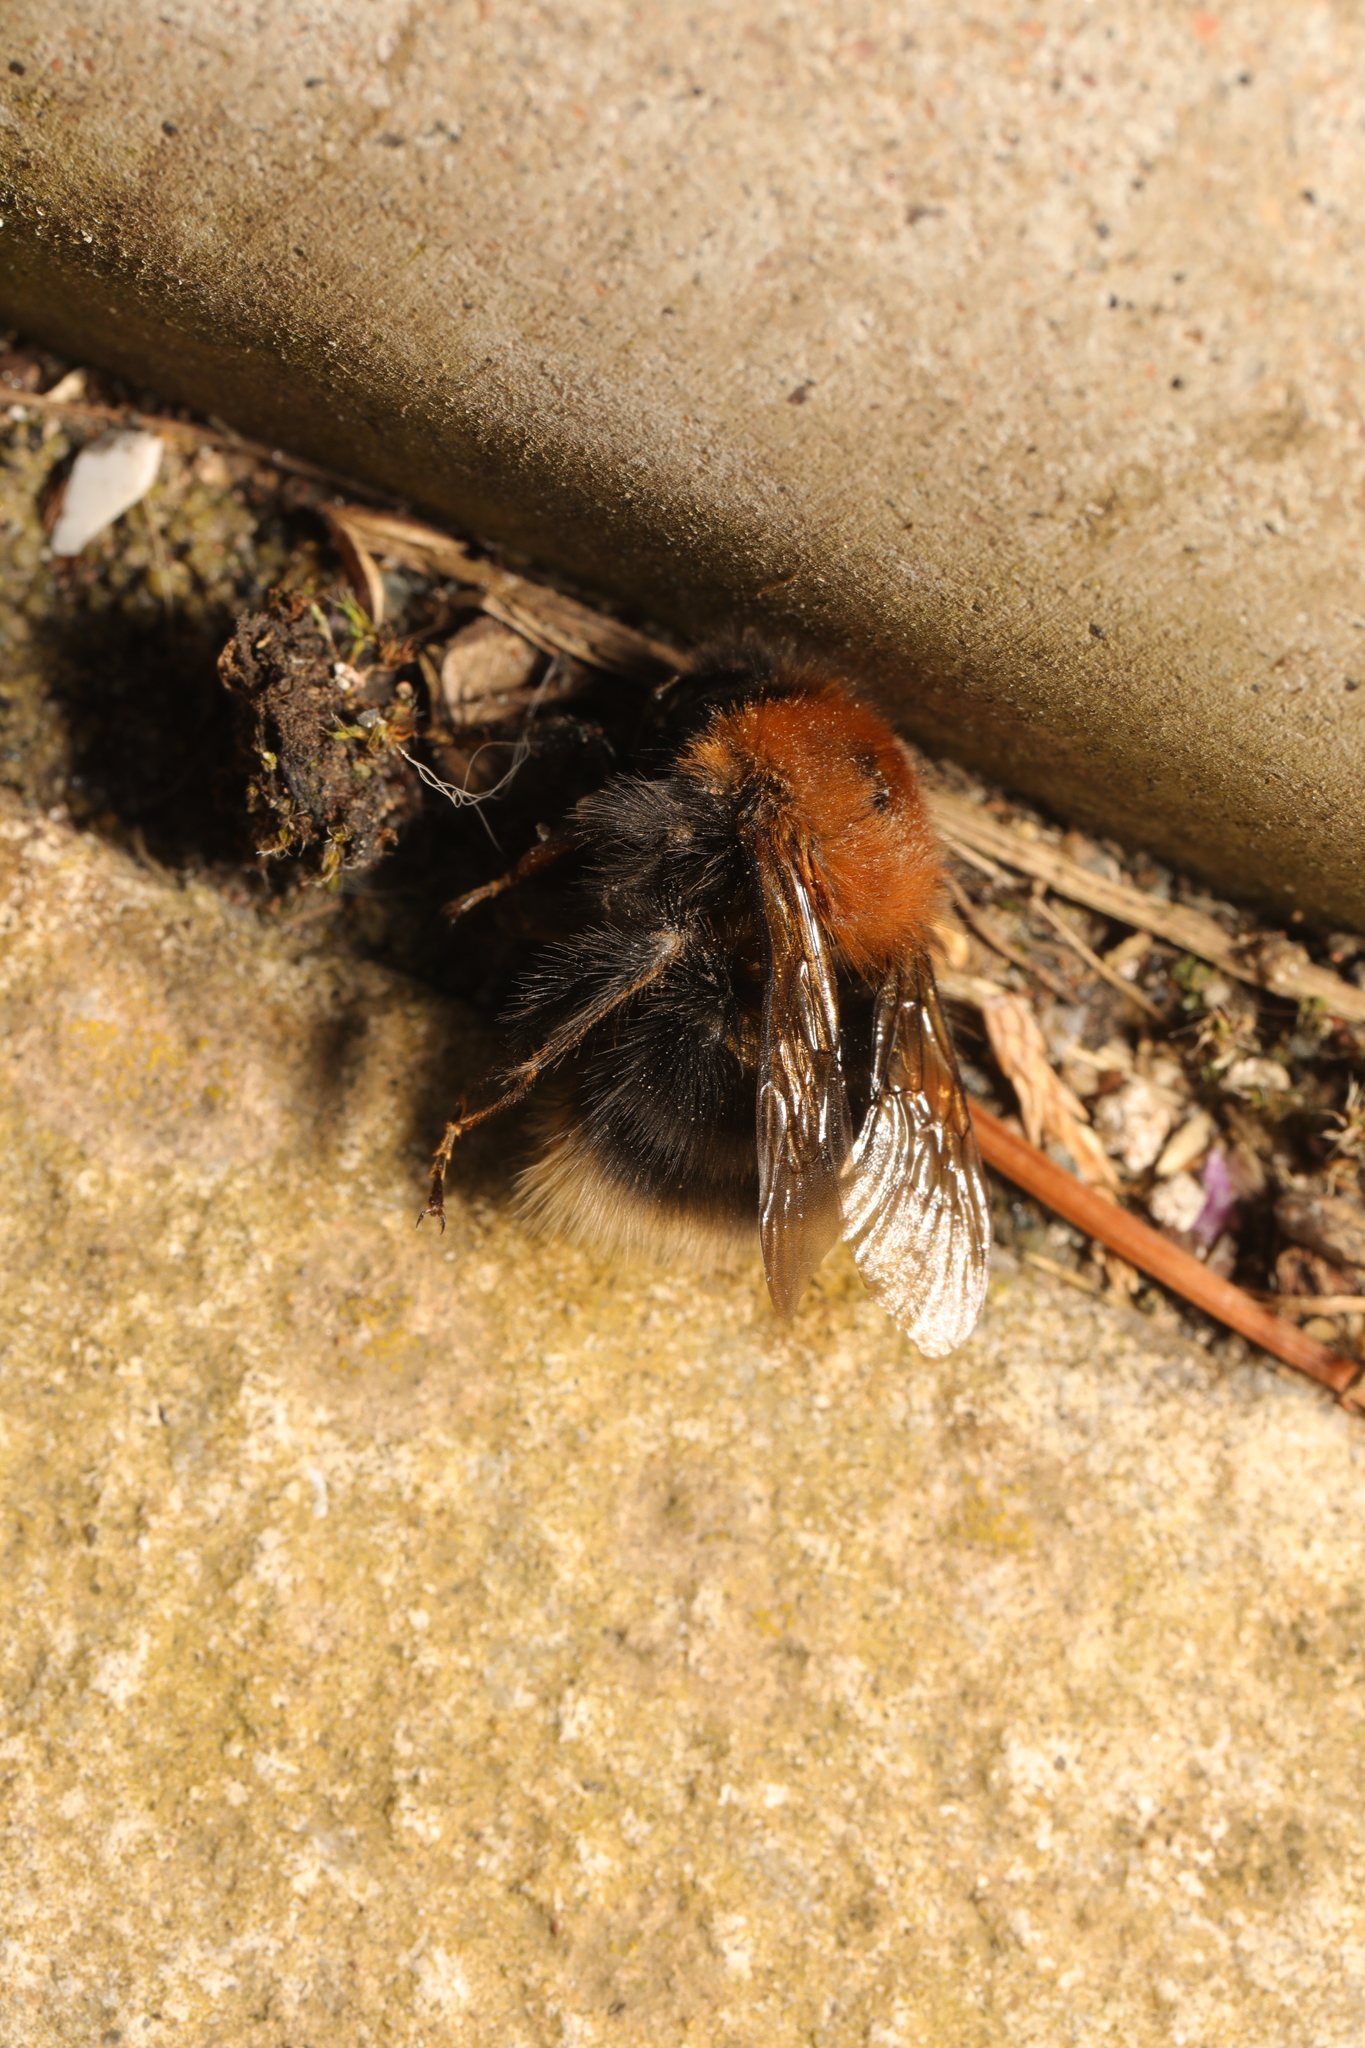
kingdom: Animalia
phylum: Arthropoda
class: Insecta
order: Hymenoptera
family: Apidae
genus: Bombus
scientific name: Bombus hypnorum
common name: New garden bumblebee
